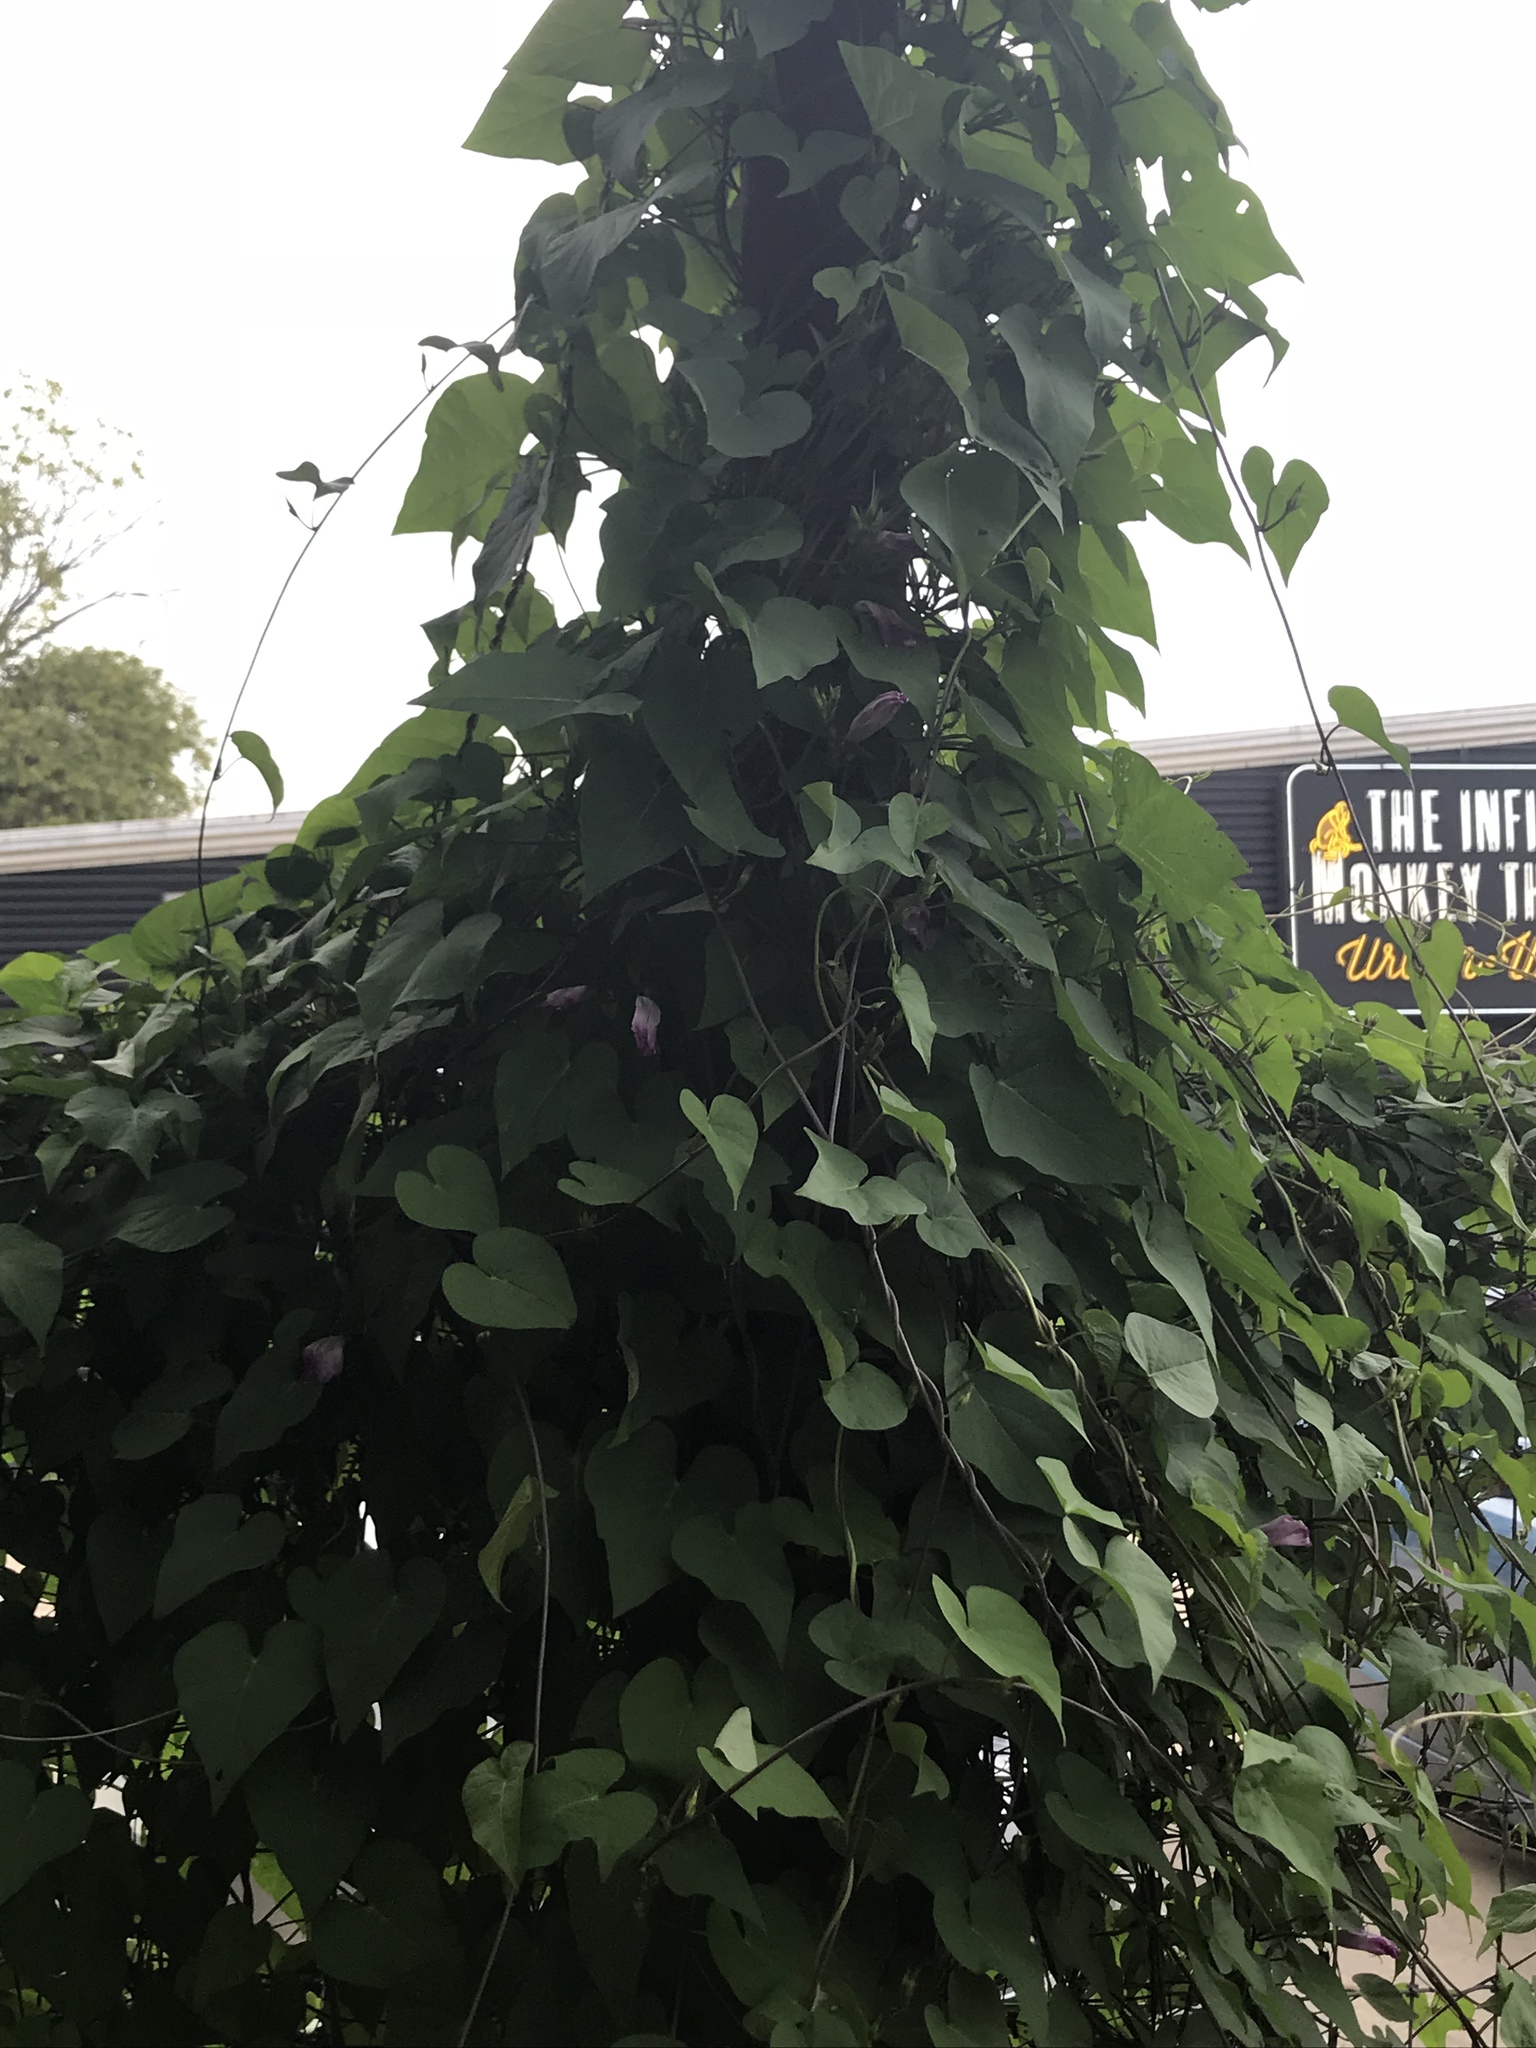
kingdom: Plantae
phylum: Tracheophyta
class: Magnoliopsida
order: Solanales
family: Convolvulaceae
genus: Ipomoea
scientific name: Ipomoea cordatotriloba
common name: Cotton morning glory
